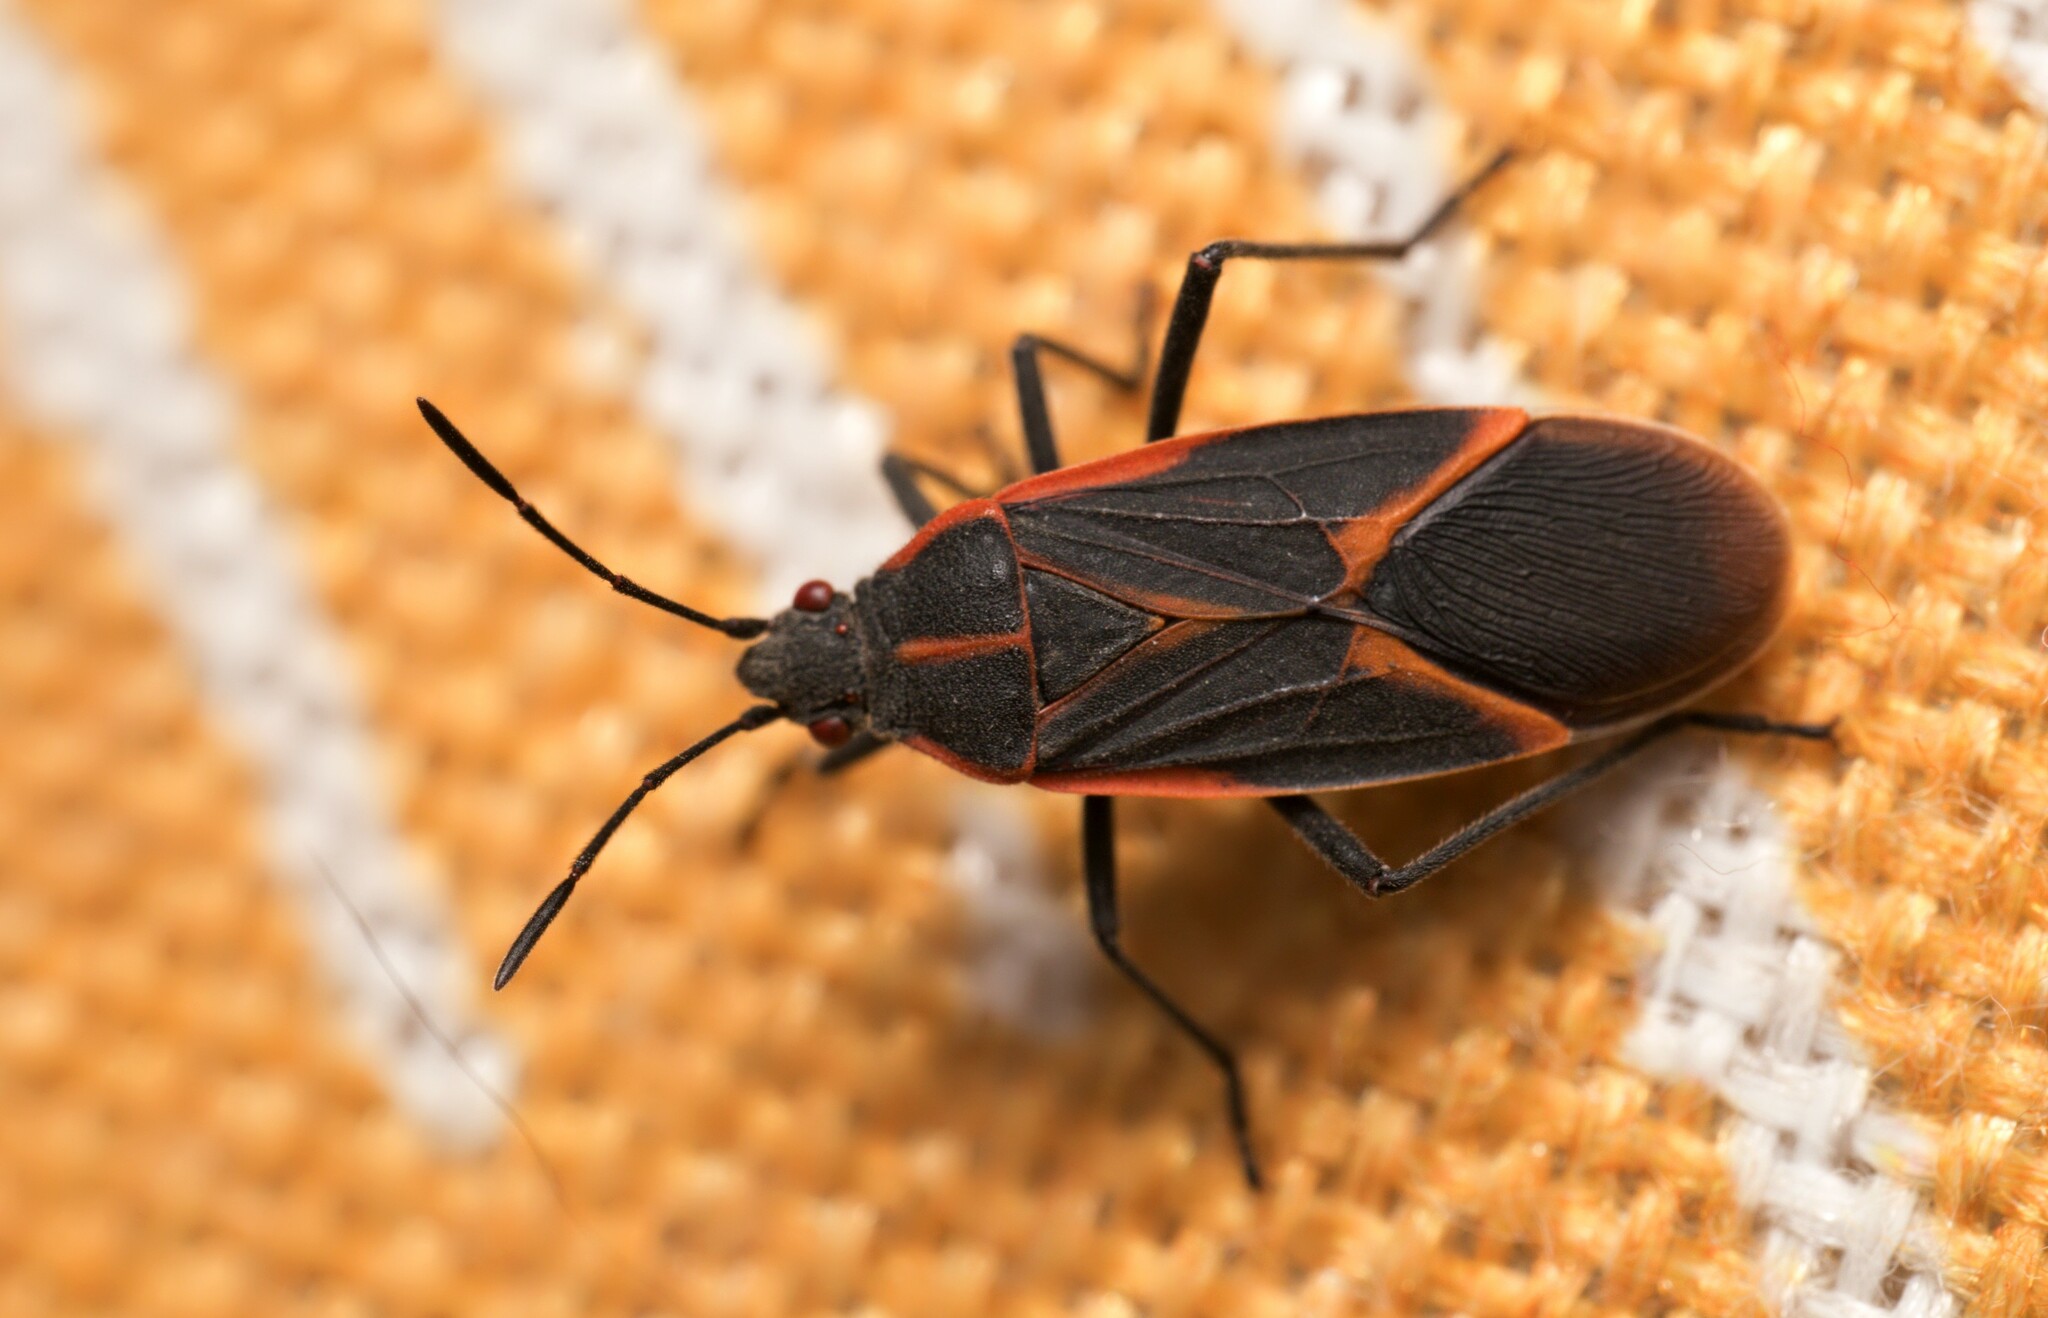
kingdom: Animalia
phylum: Arthropoda
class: Insecta
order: Hemiptera
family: Rhopalidae
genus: Boisea
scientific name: Boisea trivittata
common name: Boxelder bug
